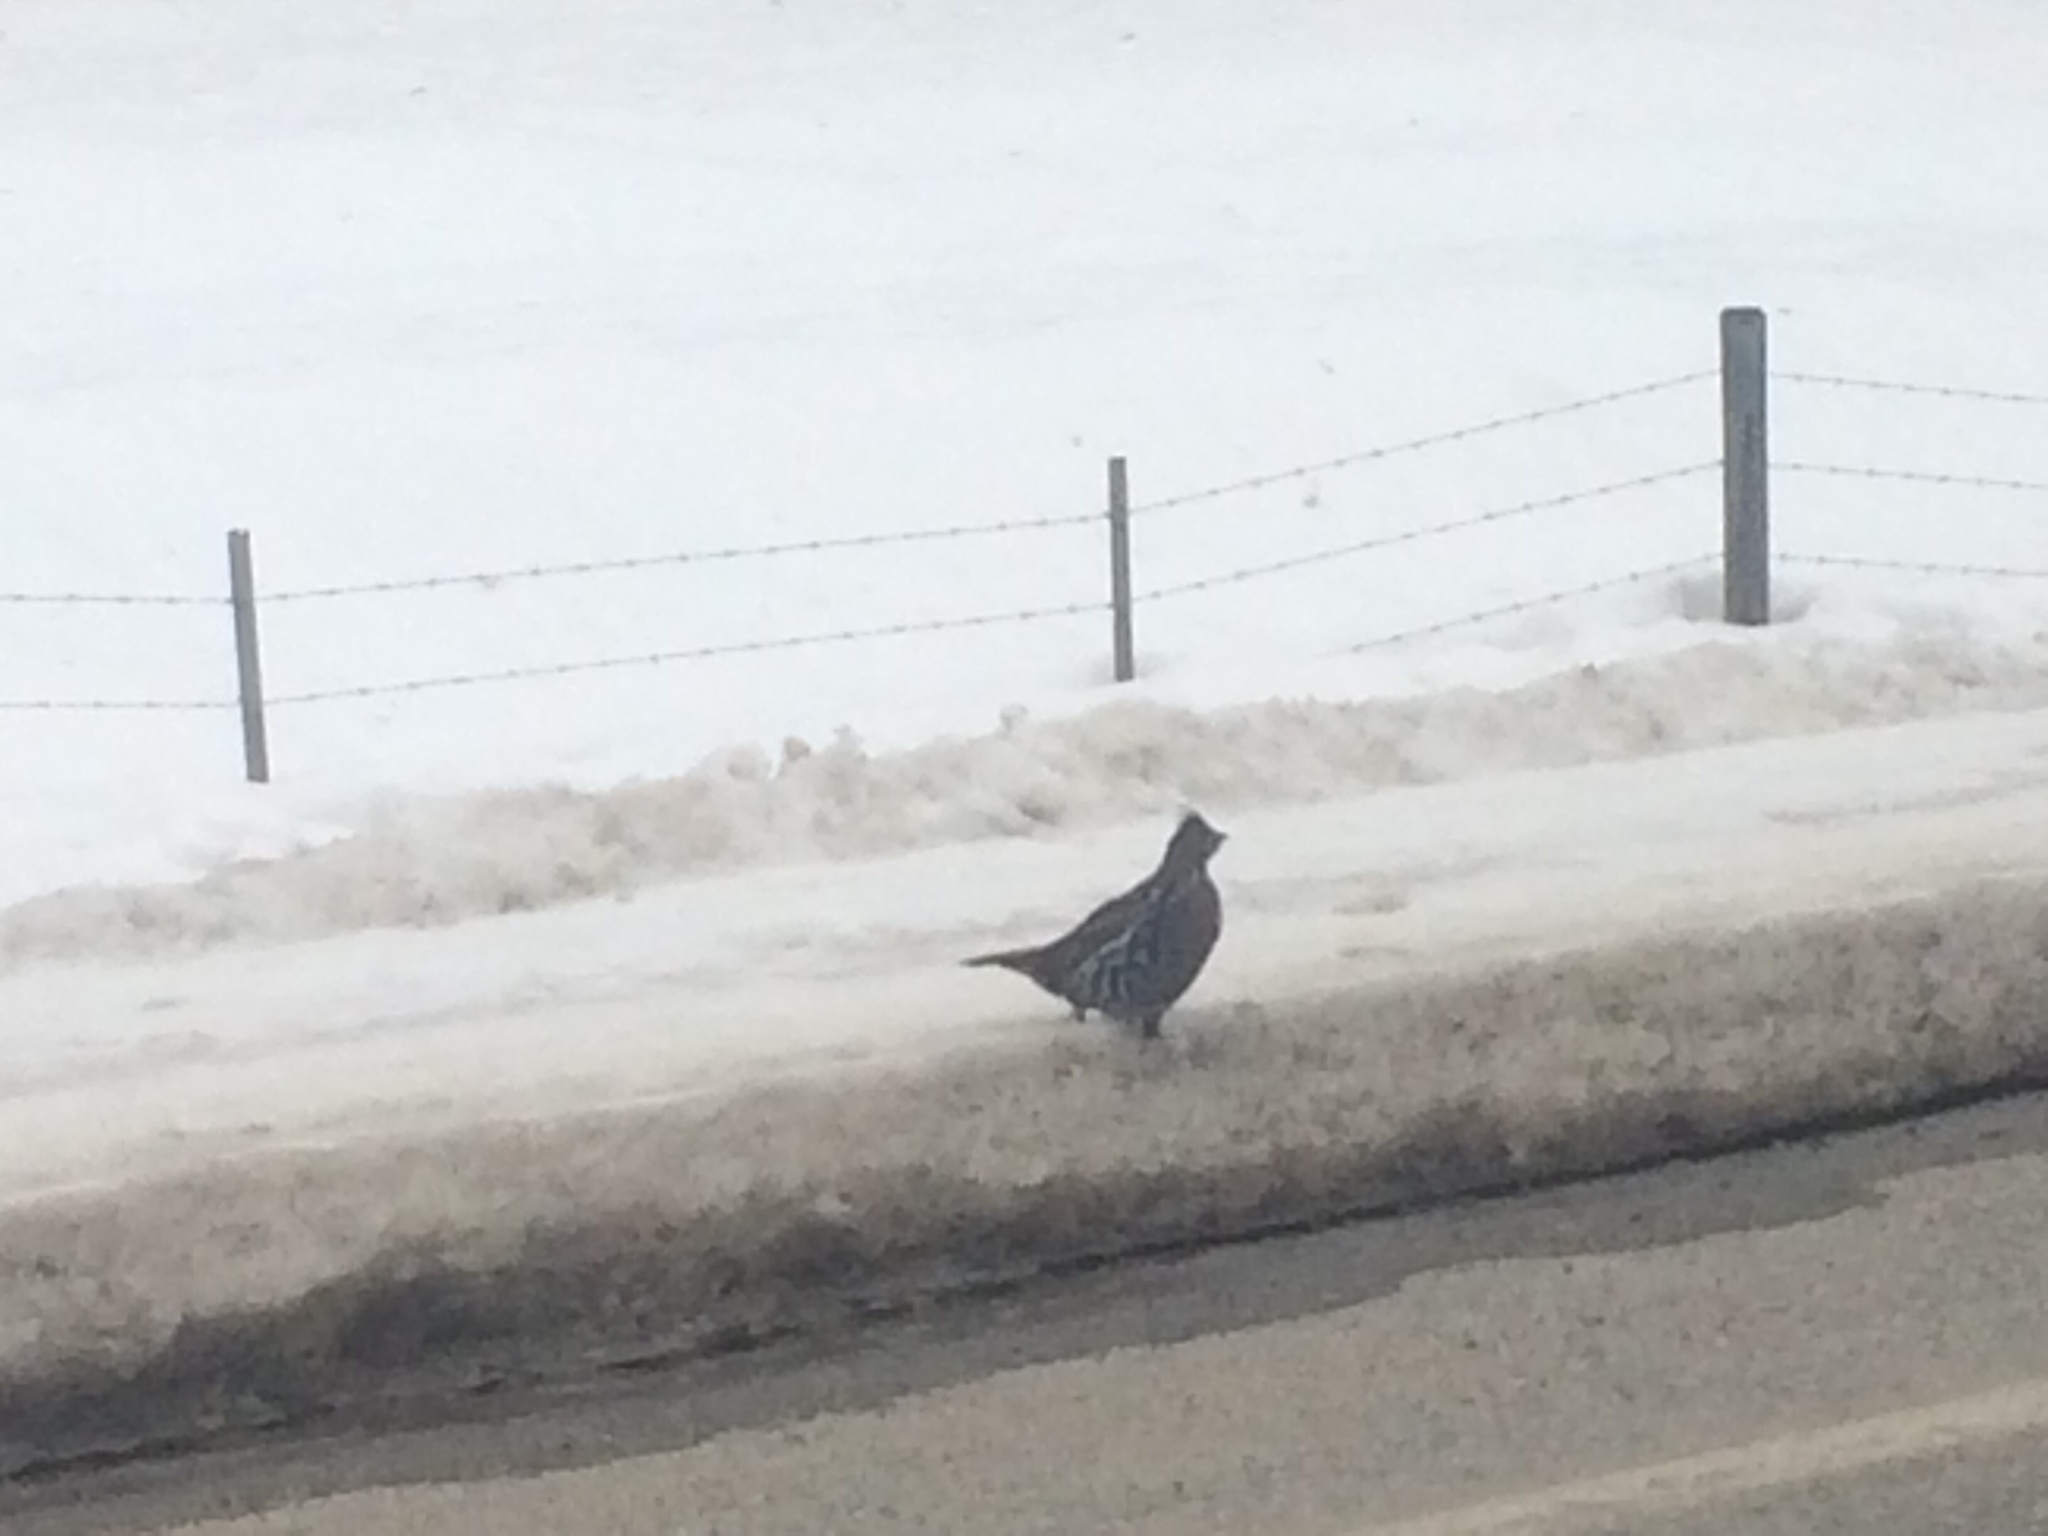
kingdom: Animalia
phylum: Chordata
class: Aves
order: Galliformes
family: Phasianidae
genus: Bonasa
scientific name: Bonasa umbellus
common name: Ruffed grouse
